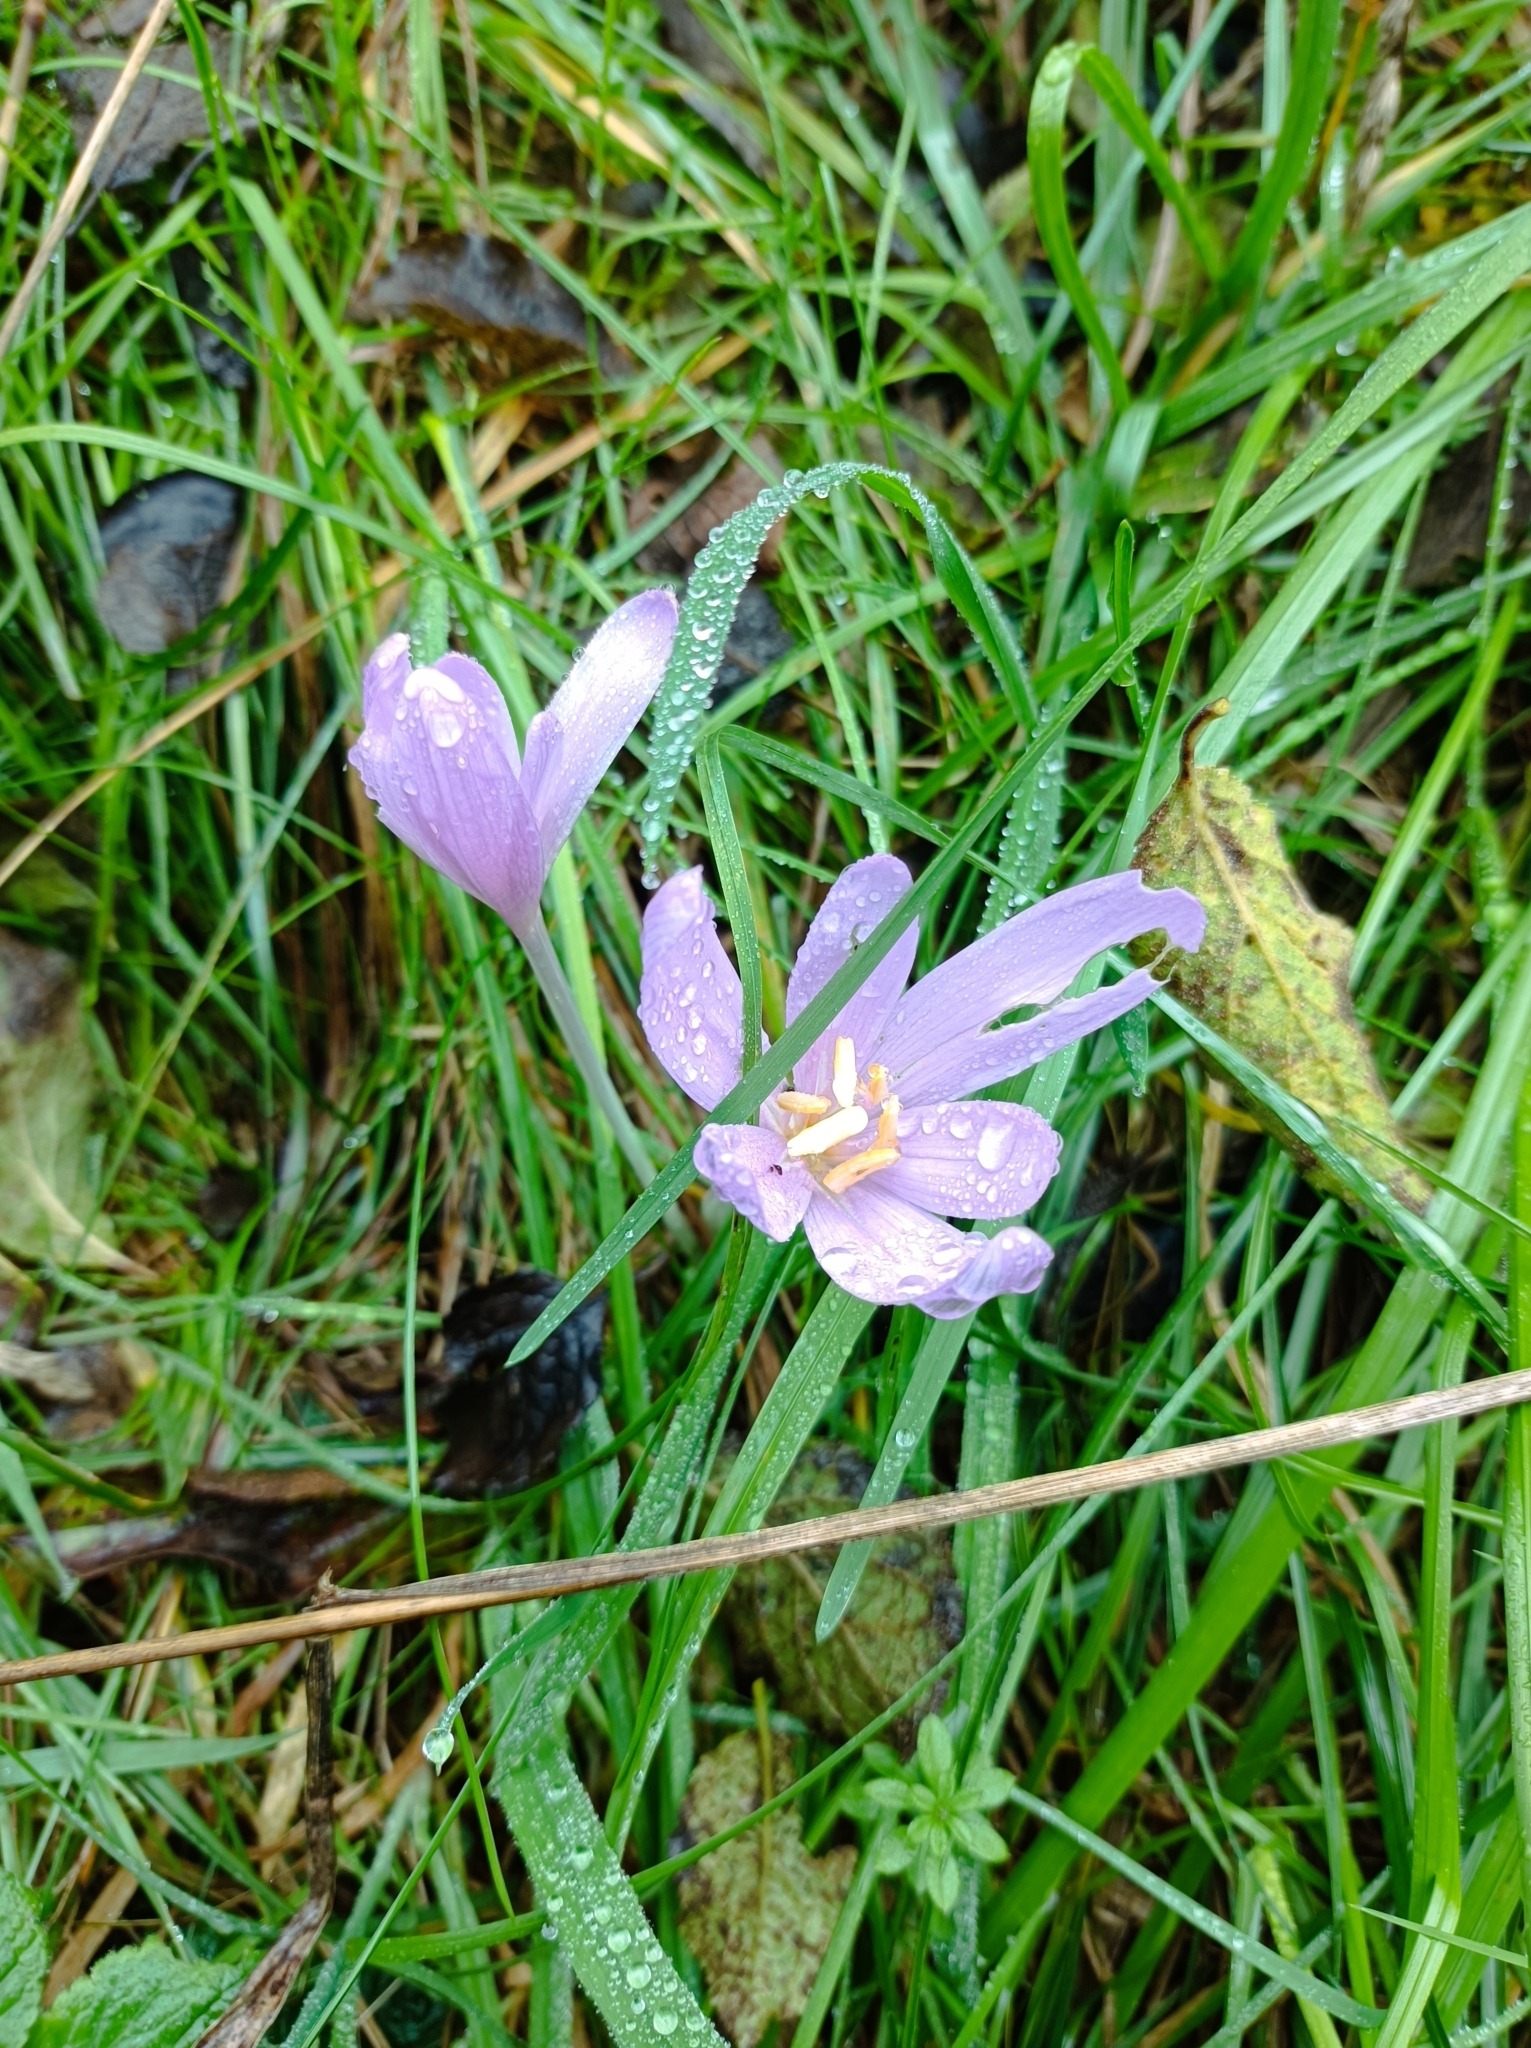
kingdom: Plantae
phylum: Tracheophyta
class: Liliopsida
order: Liliales
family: Colchicaceae
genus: Colchicum
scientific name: Colchicum autumnale
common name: Autumn crocus
